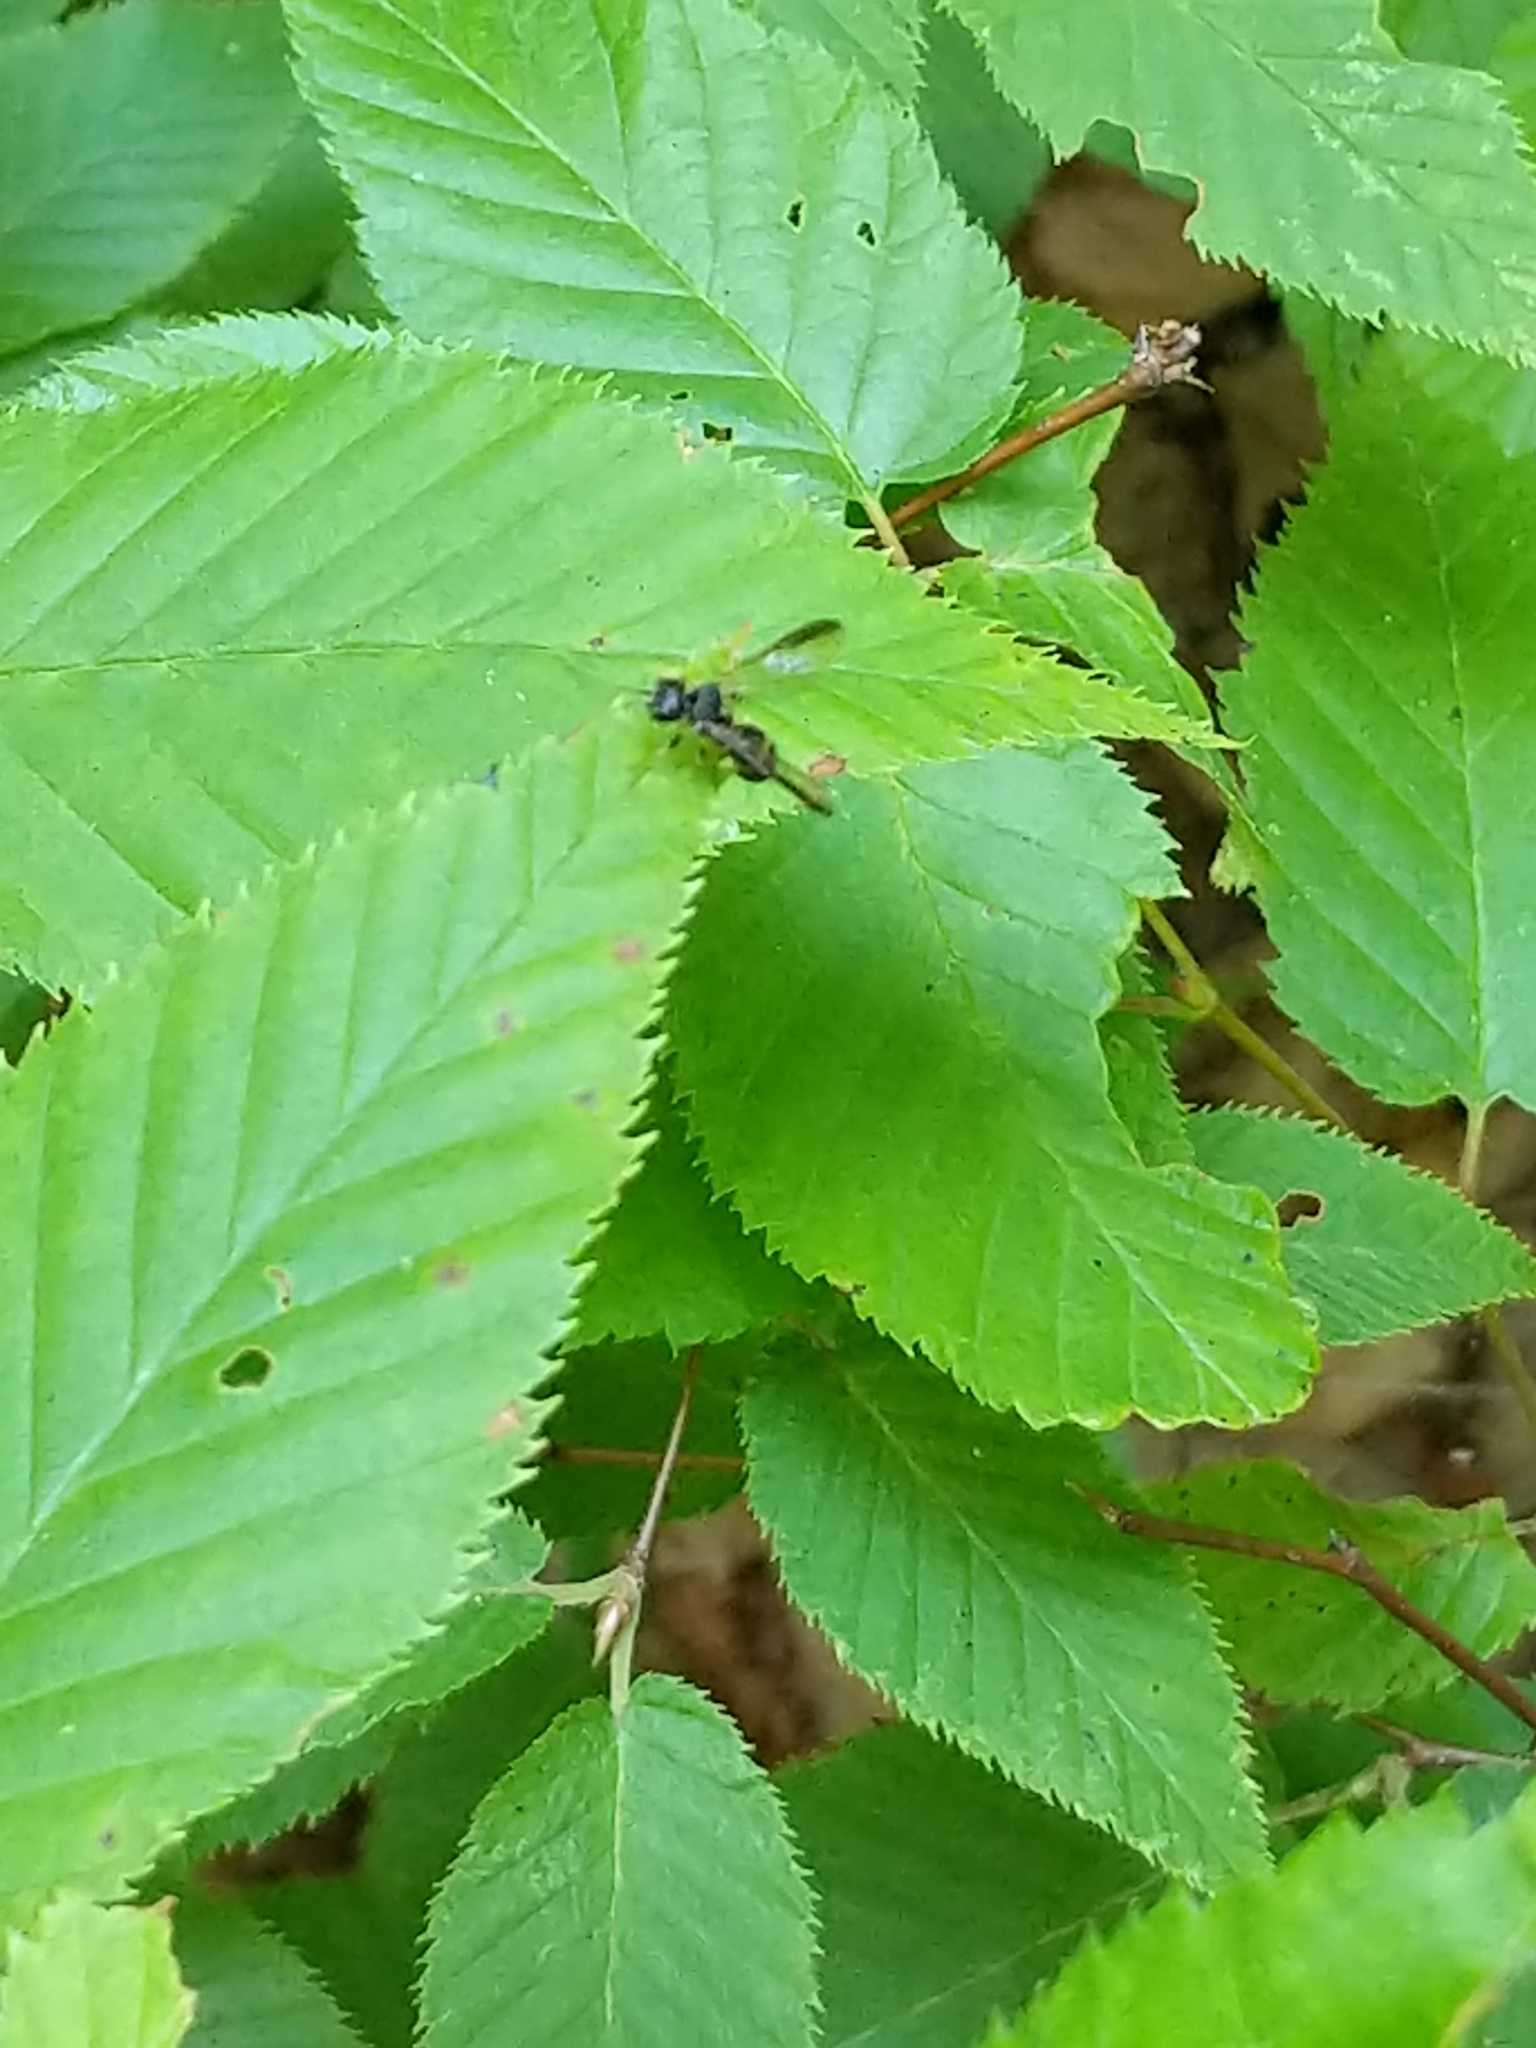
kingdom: Animalia
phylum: Arthropoda
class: Insecta
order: Hymenoptera
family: Trigonalidae
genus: Taeniogonalos
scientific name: Taeniogonalos gundlachii
